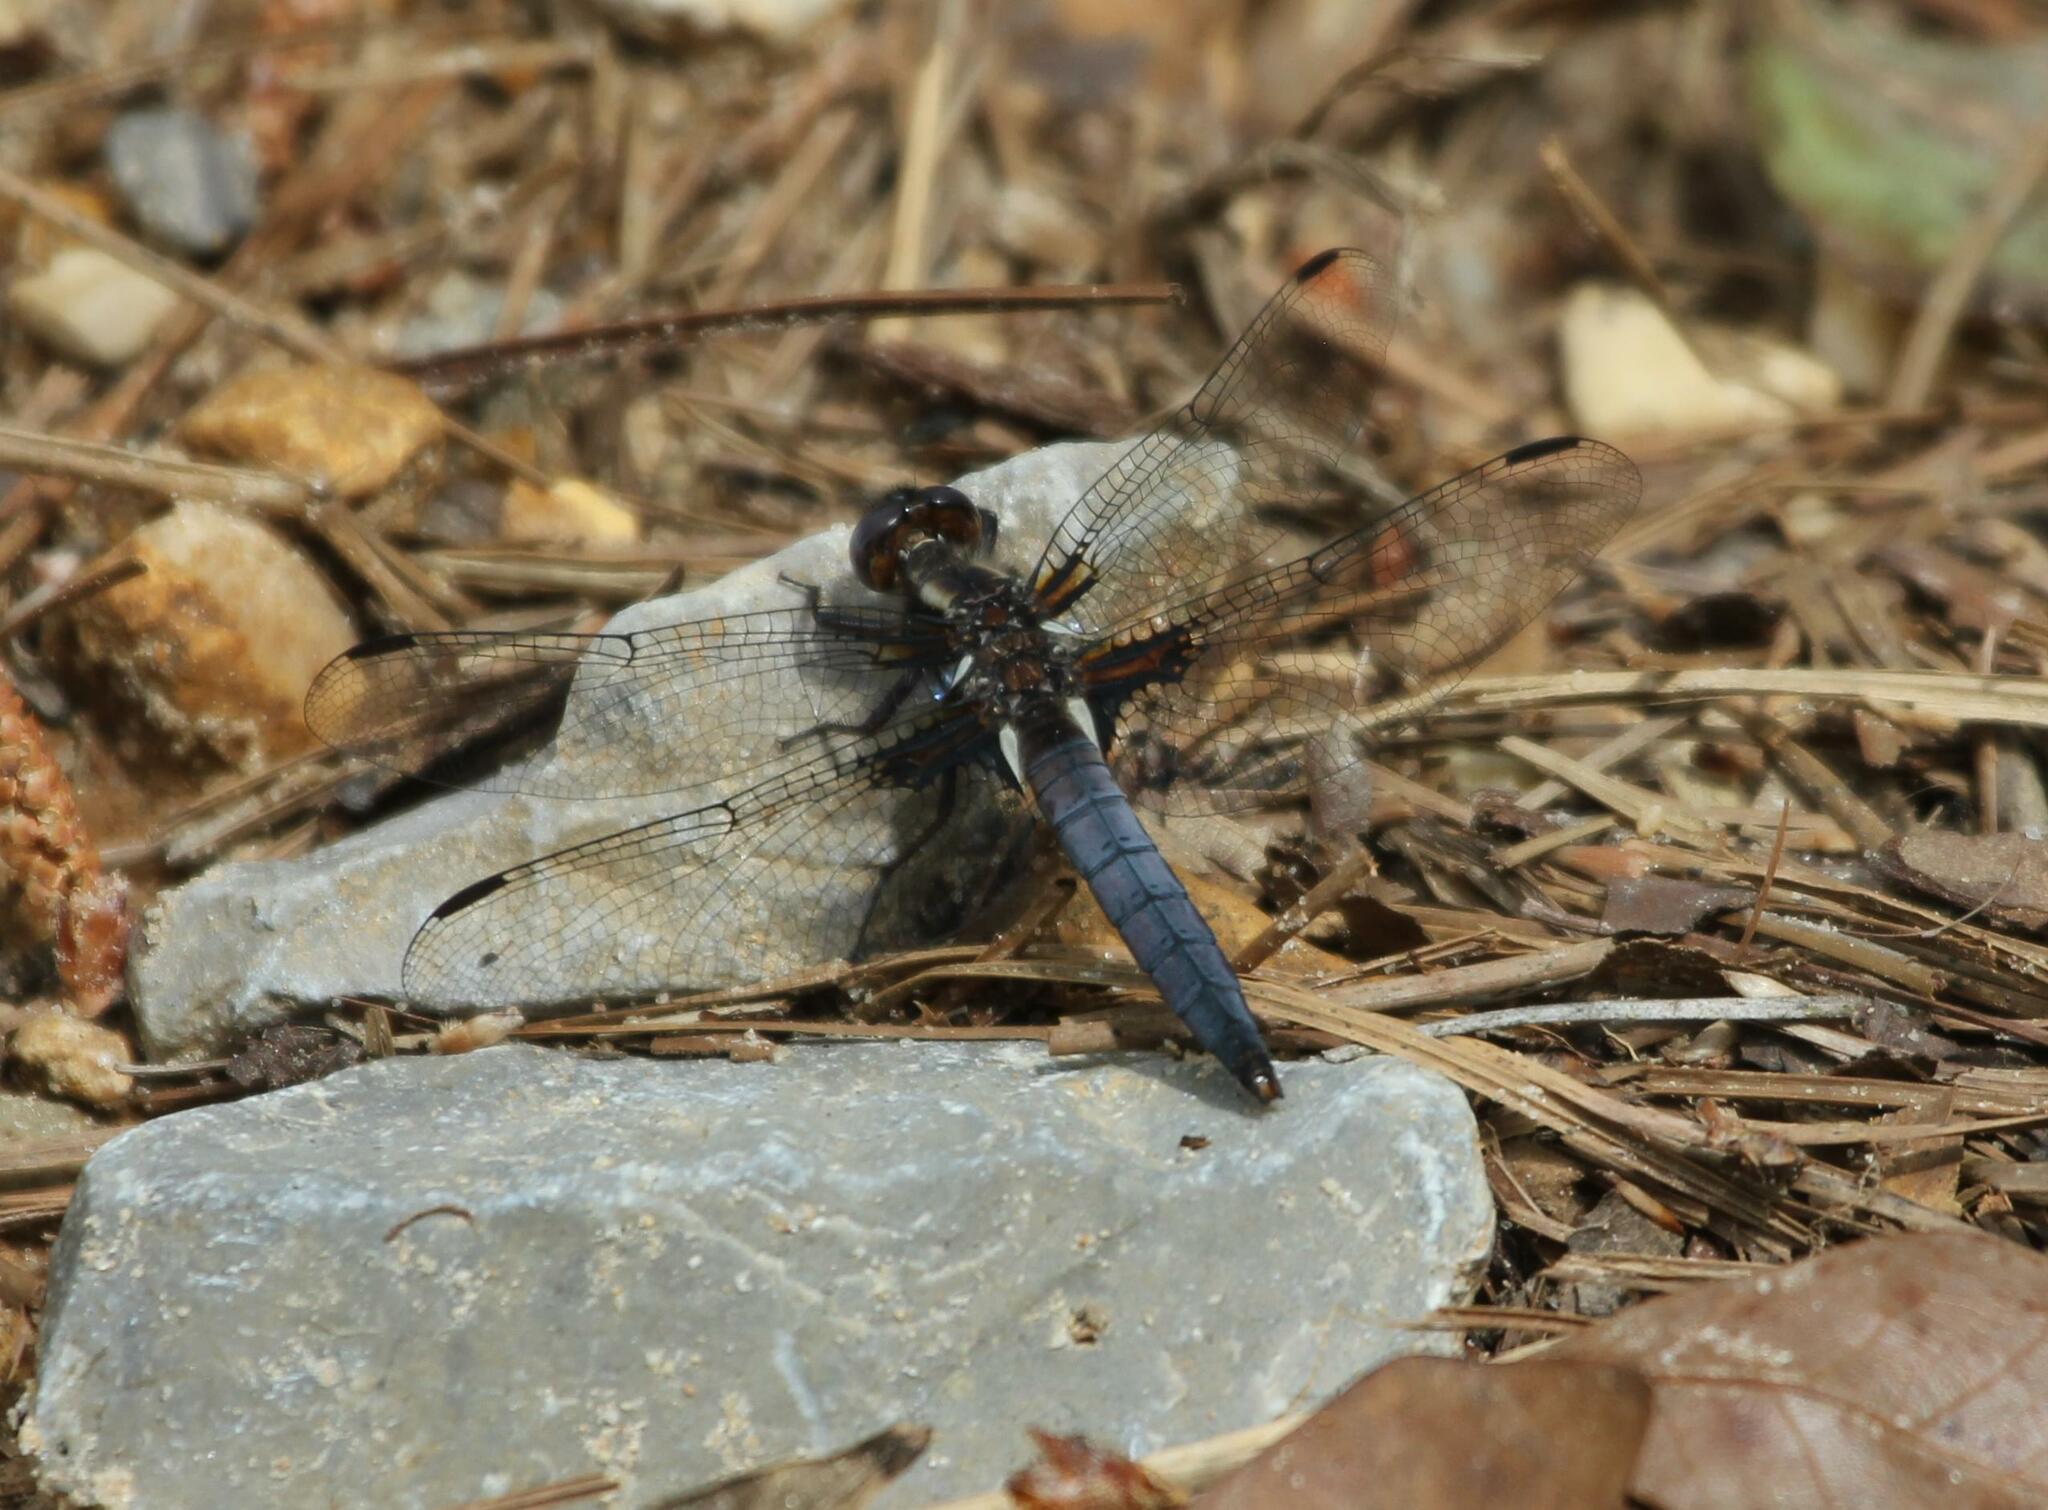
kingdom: Animalia
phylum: Arthropoda
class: Insecta
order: Odonata
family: Libellulidae
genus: Ladona
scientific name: Ladona deplanata
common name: Blue corporal
